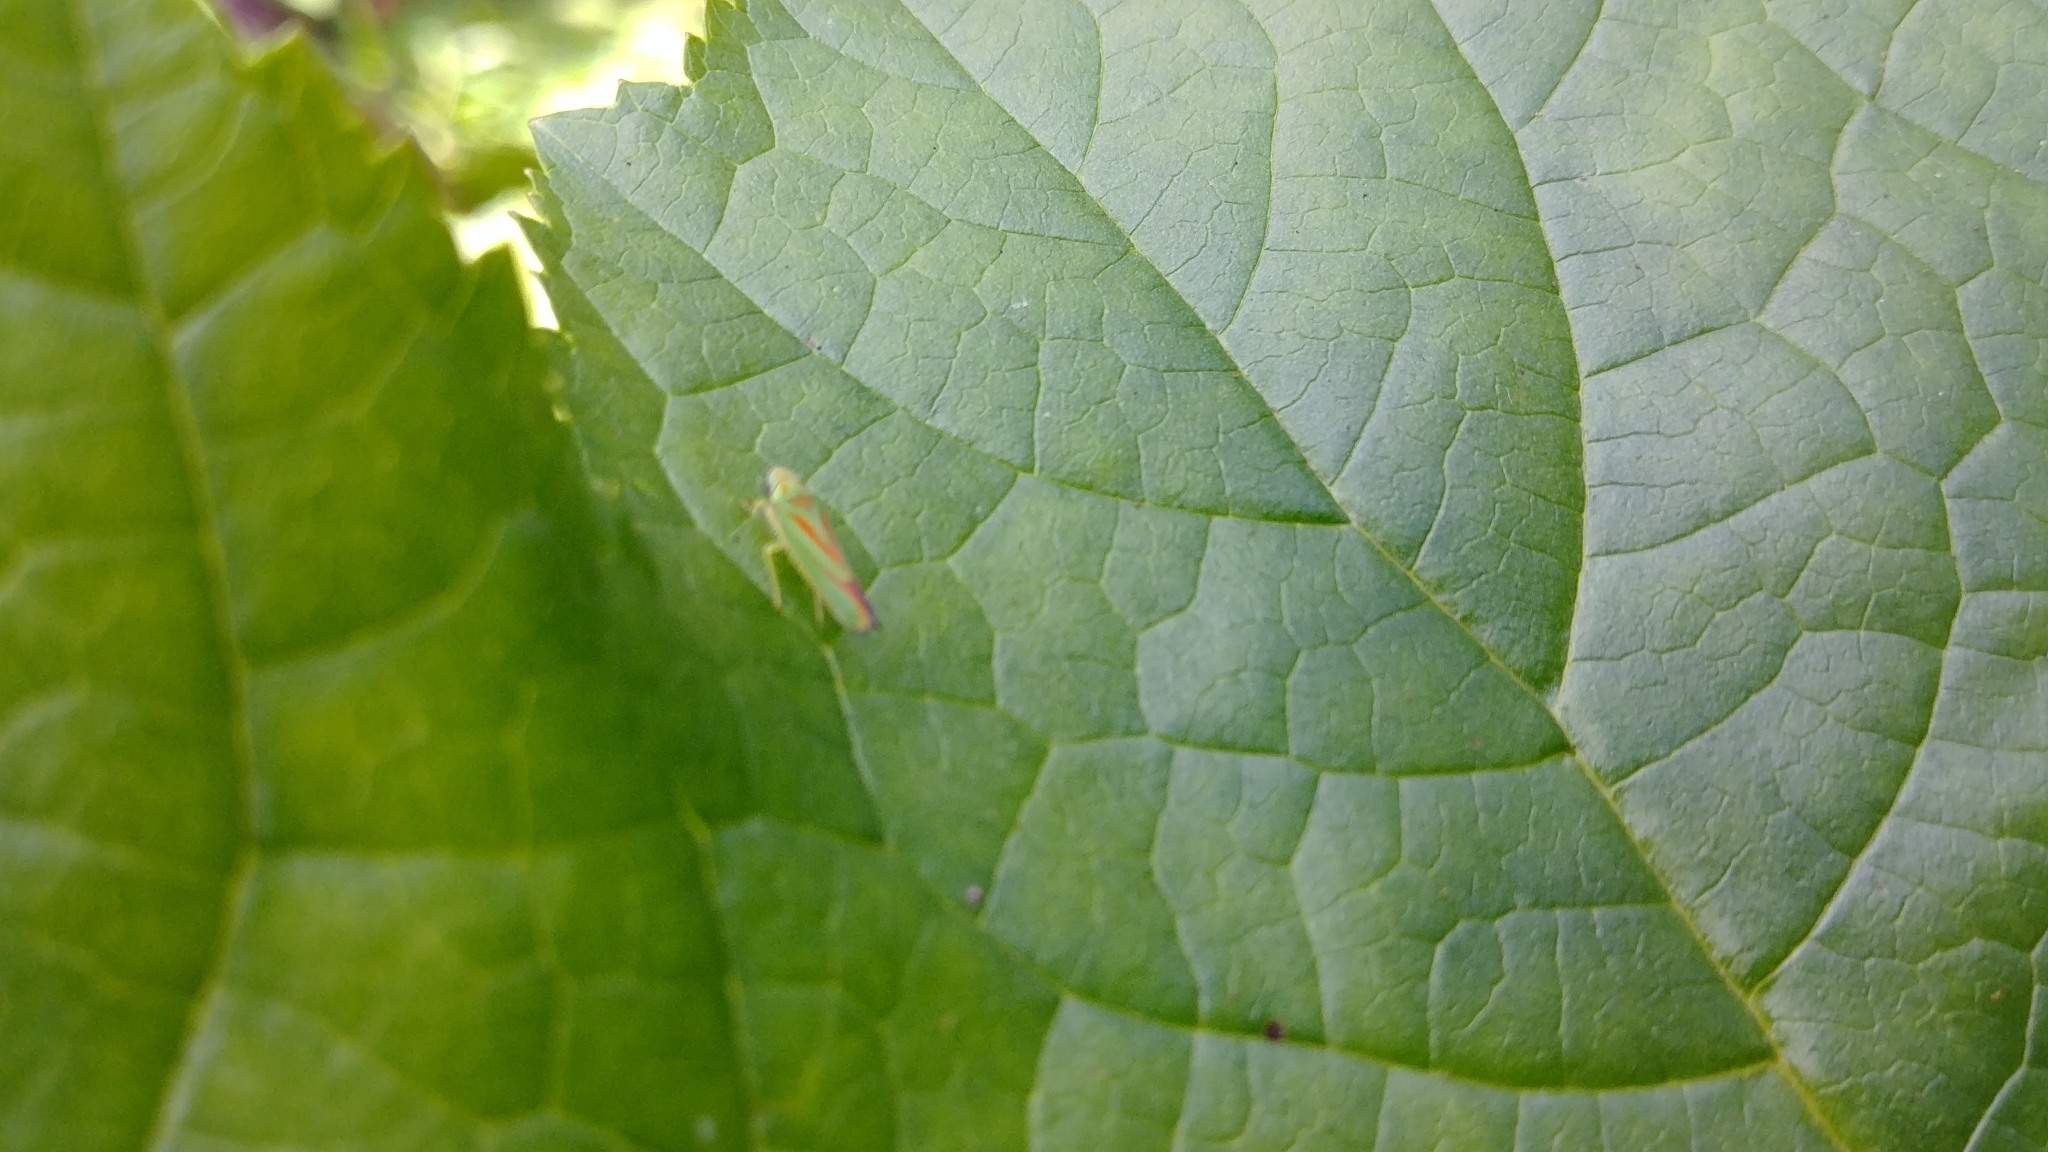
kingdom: Animalia
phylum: Arthropoda
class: Insecta
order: Hemiptera
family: Cicadellidae
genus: Graphocephala
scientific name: Graphocephala fennahi
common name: Rhododendron leafhopper
